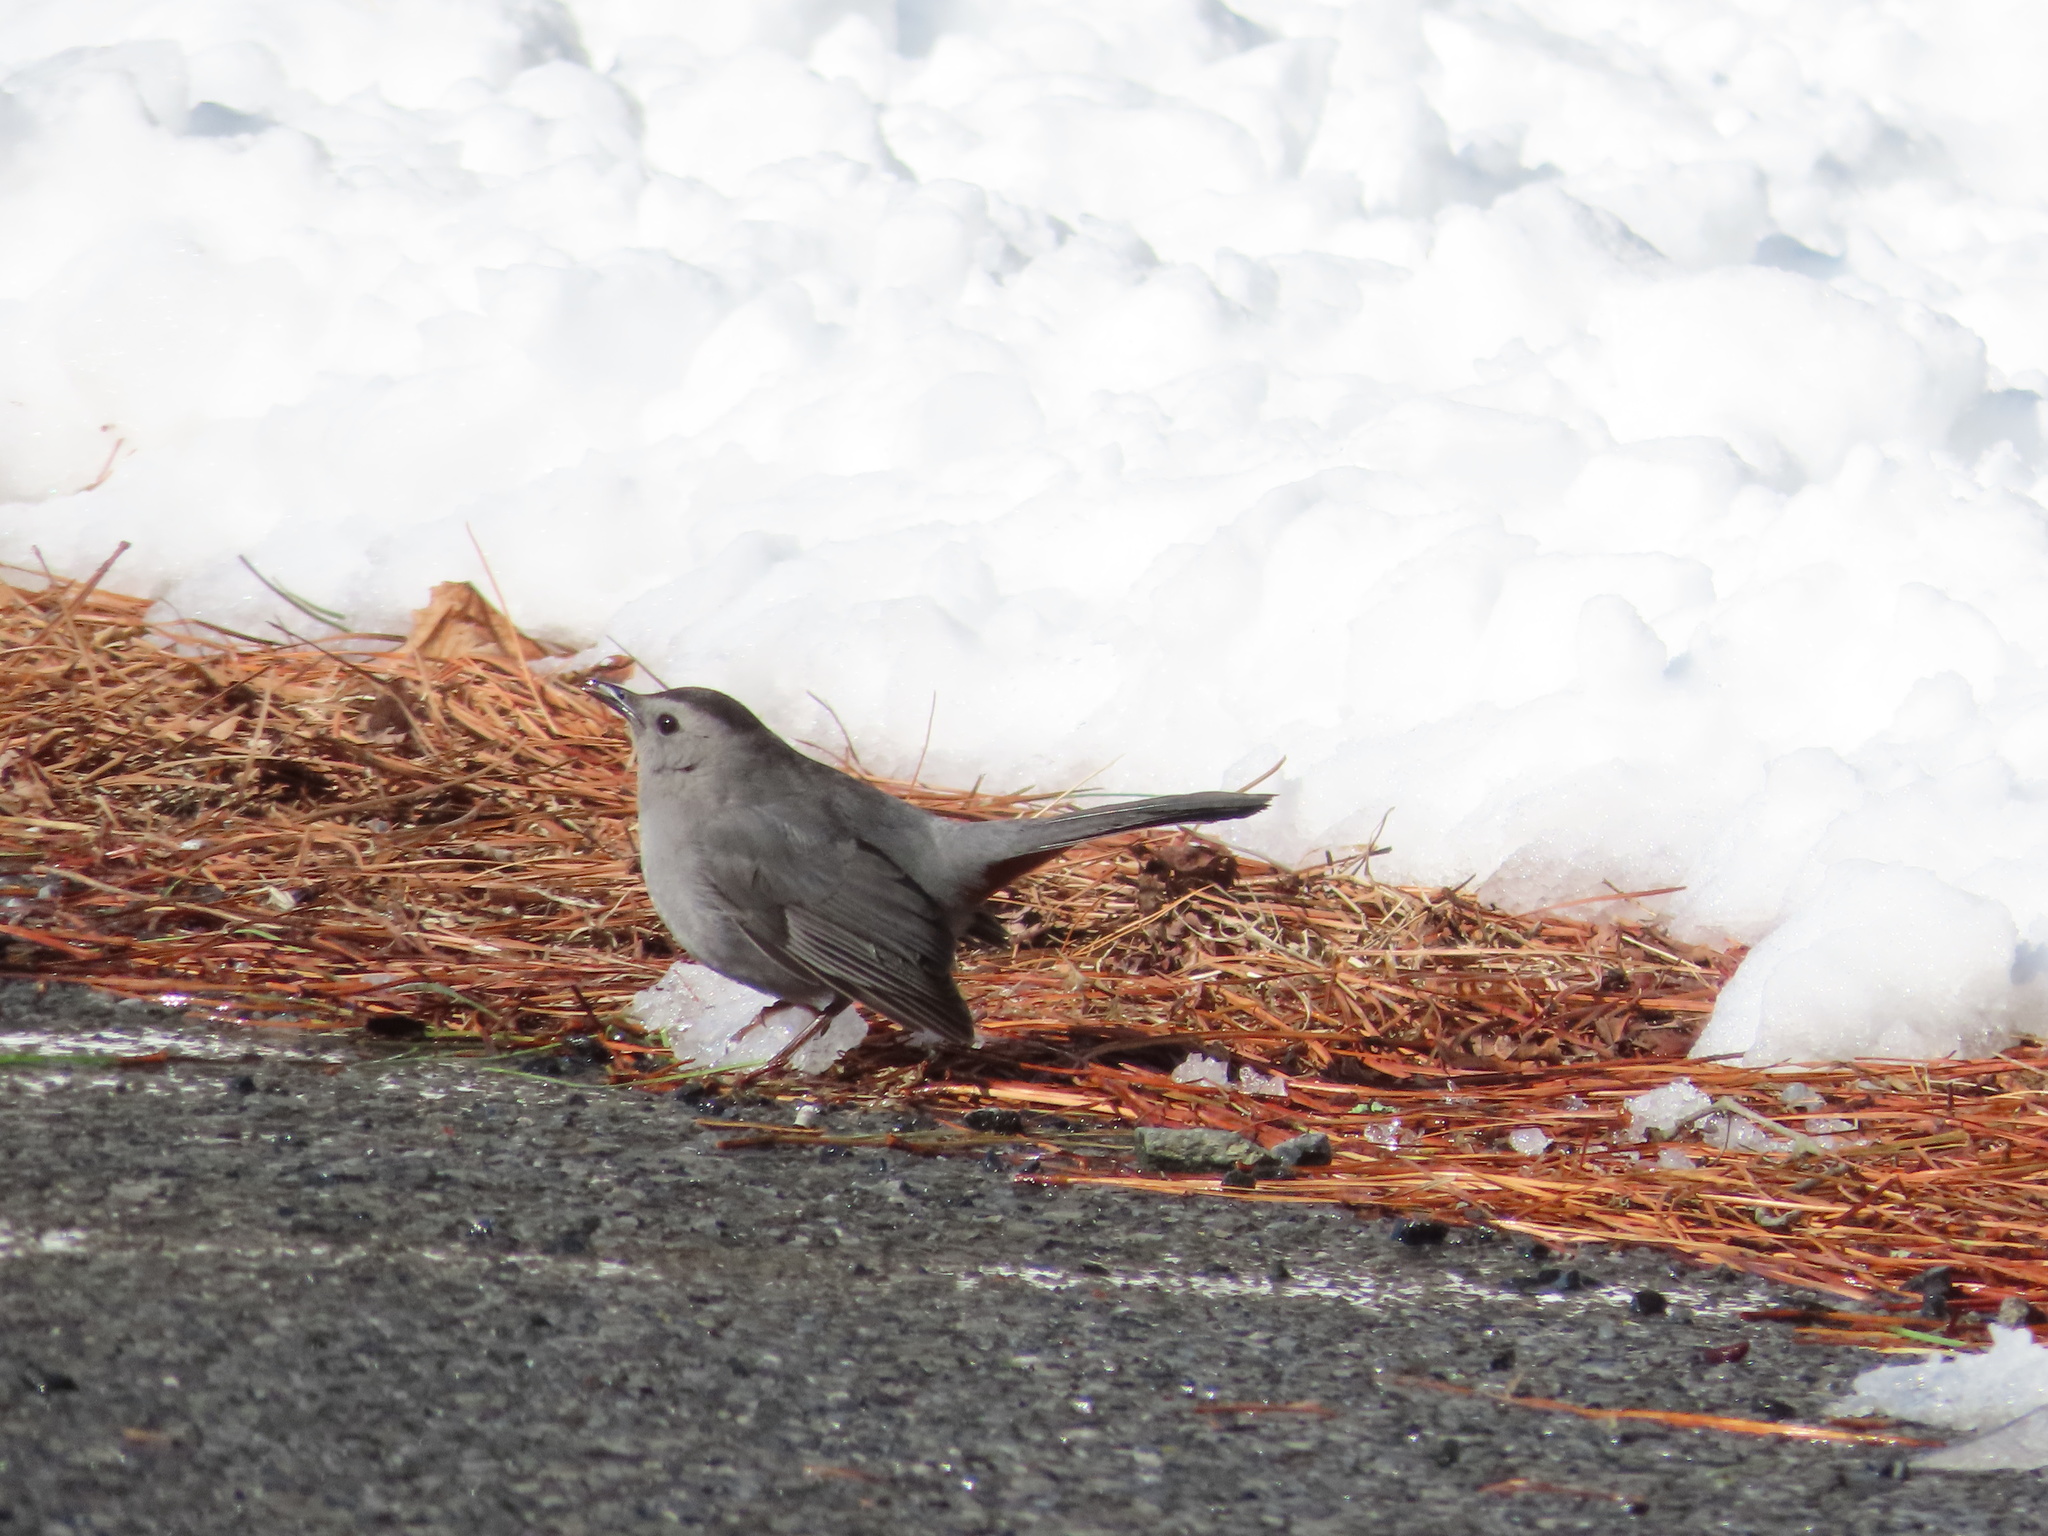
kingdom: Animalia
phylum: Chordata
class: Aves
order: Passeriformes
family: Mimidae
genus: Dumetella
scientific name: Dumetella carolinensis
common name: Gray catbird
